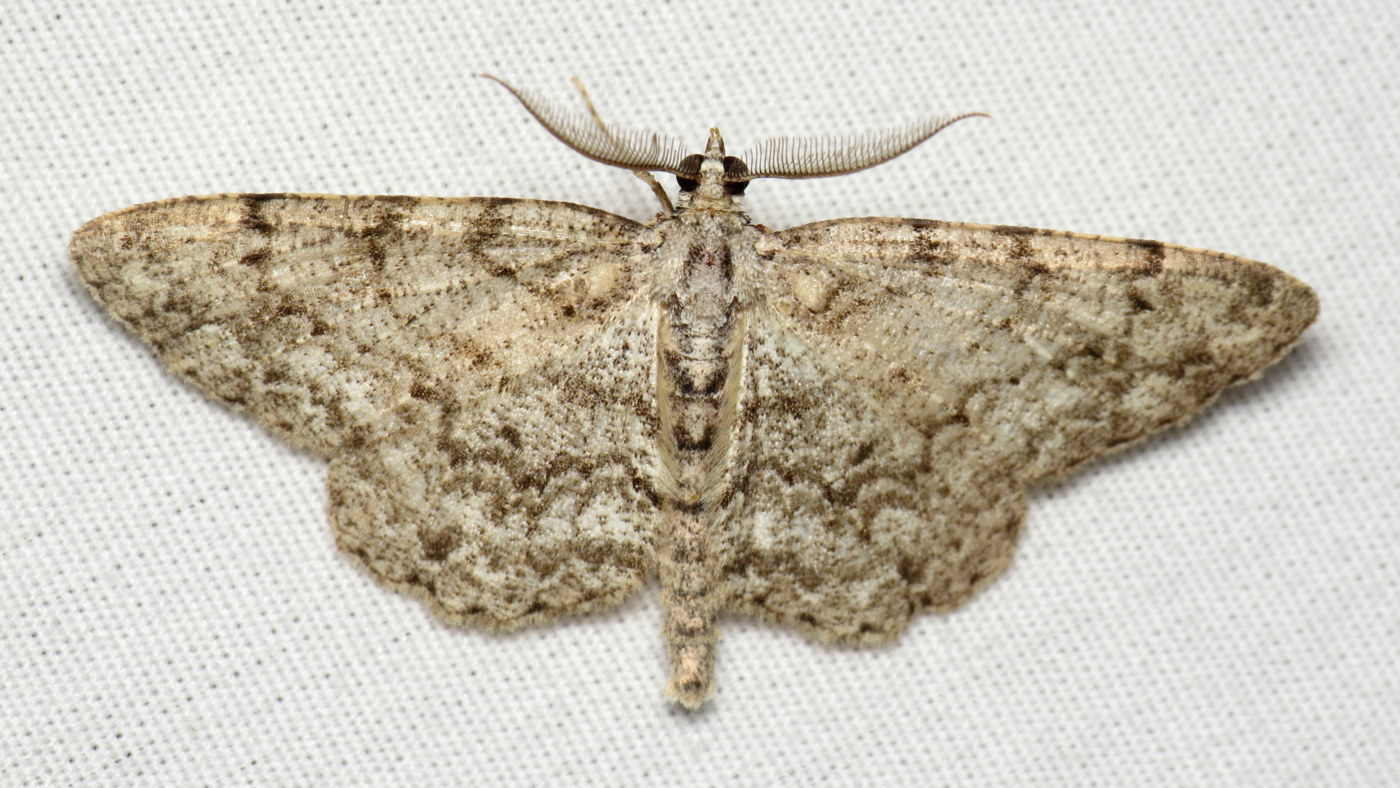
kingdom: Animalia
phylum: Arthropoda
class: Insecta
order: Lepidoptera
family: Geometridae
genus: Protoboarmia
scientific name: Protoboarmia porcelaria
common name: Porcelain gray
